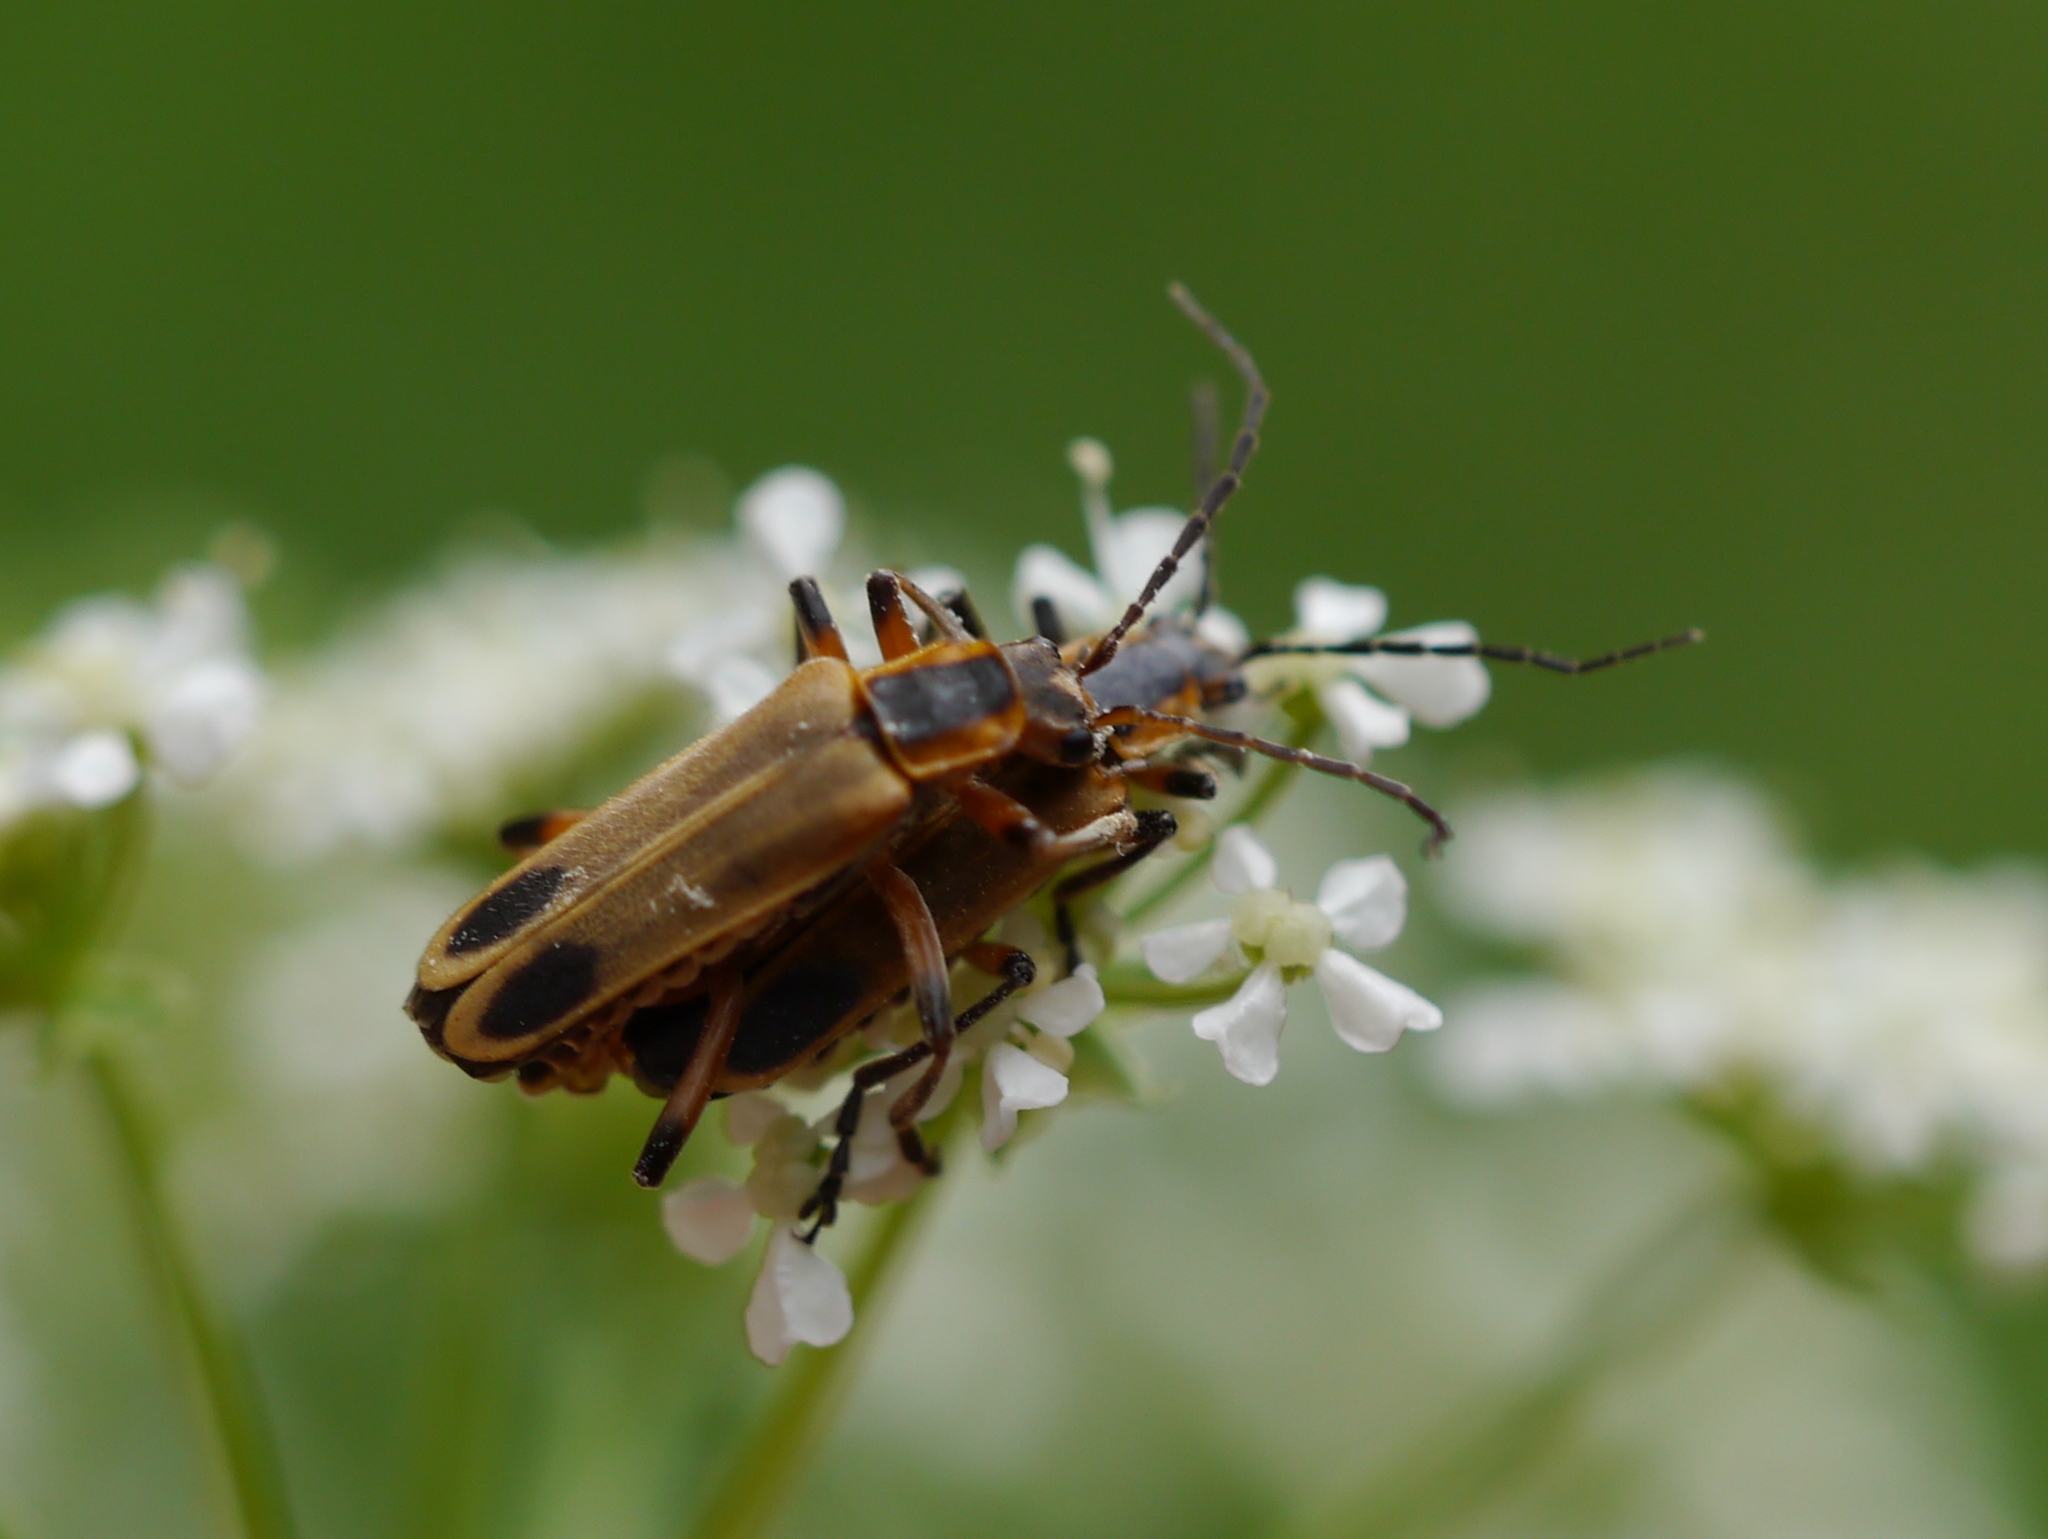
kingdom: Animalia
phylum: Arthropoda
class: Insecta
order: Coleoptera
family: Cantharidae
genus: Chauliognathus
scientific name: Chauliognathus marginatus
